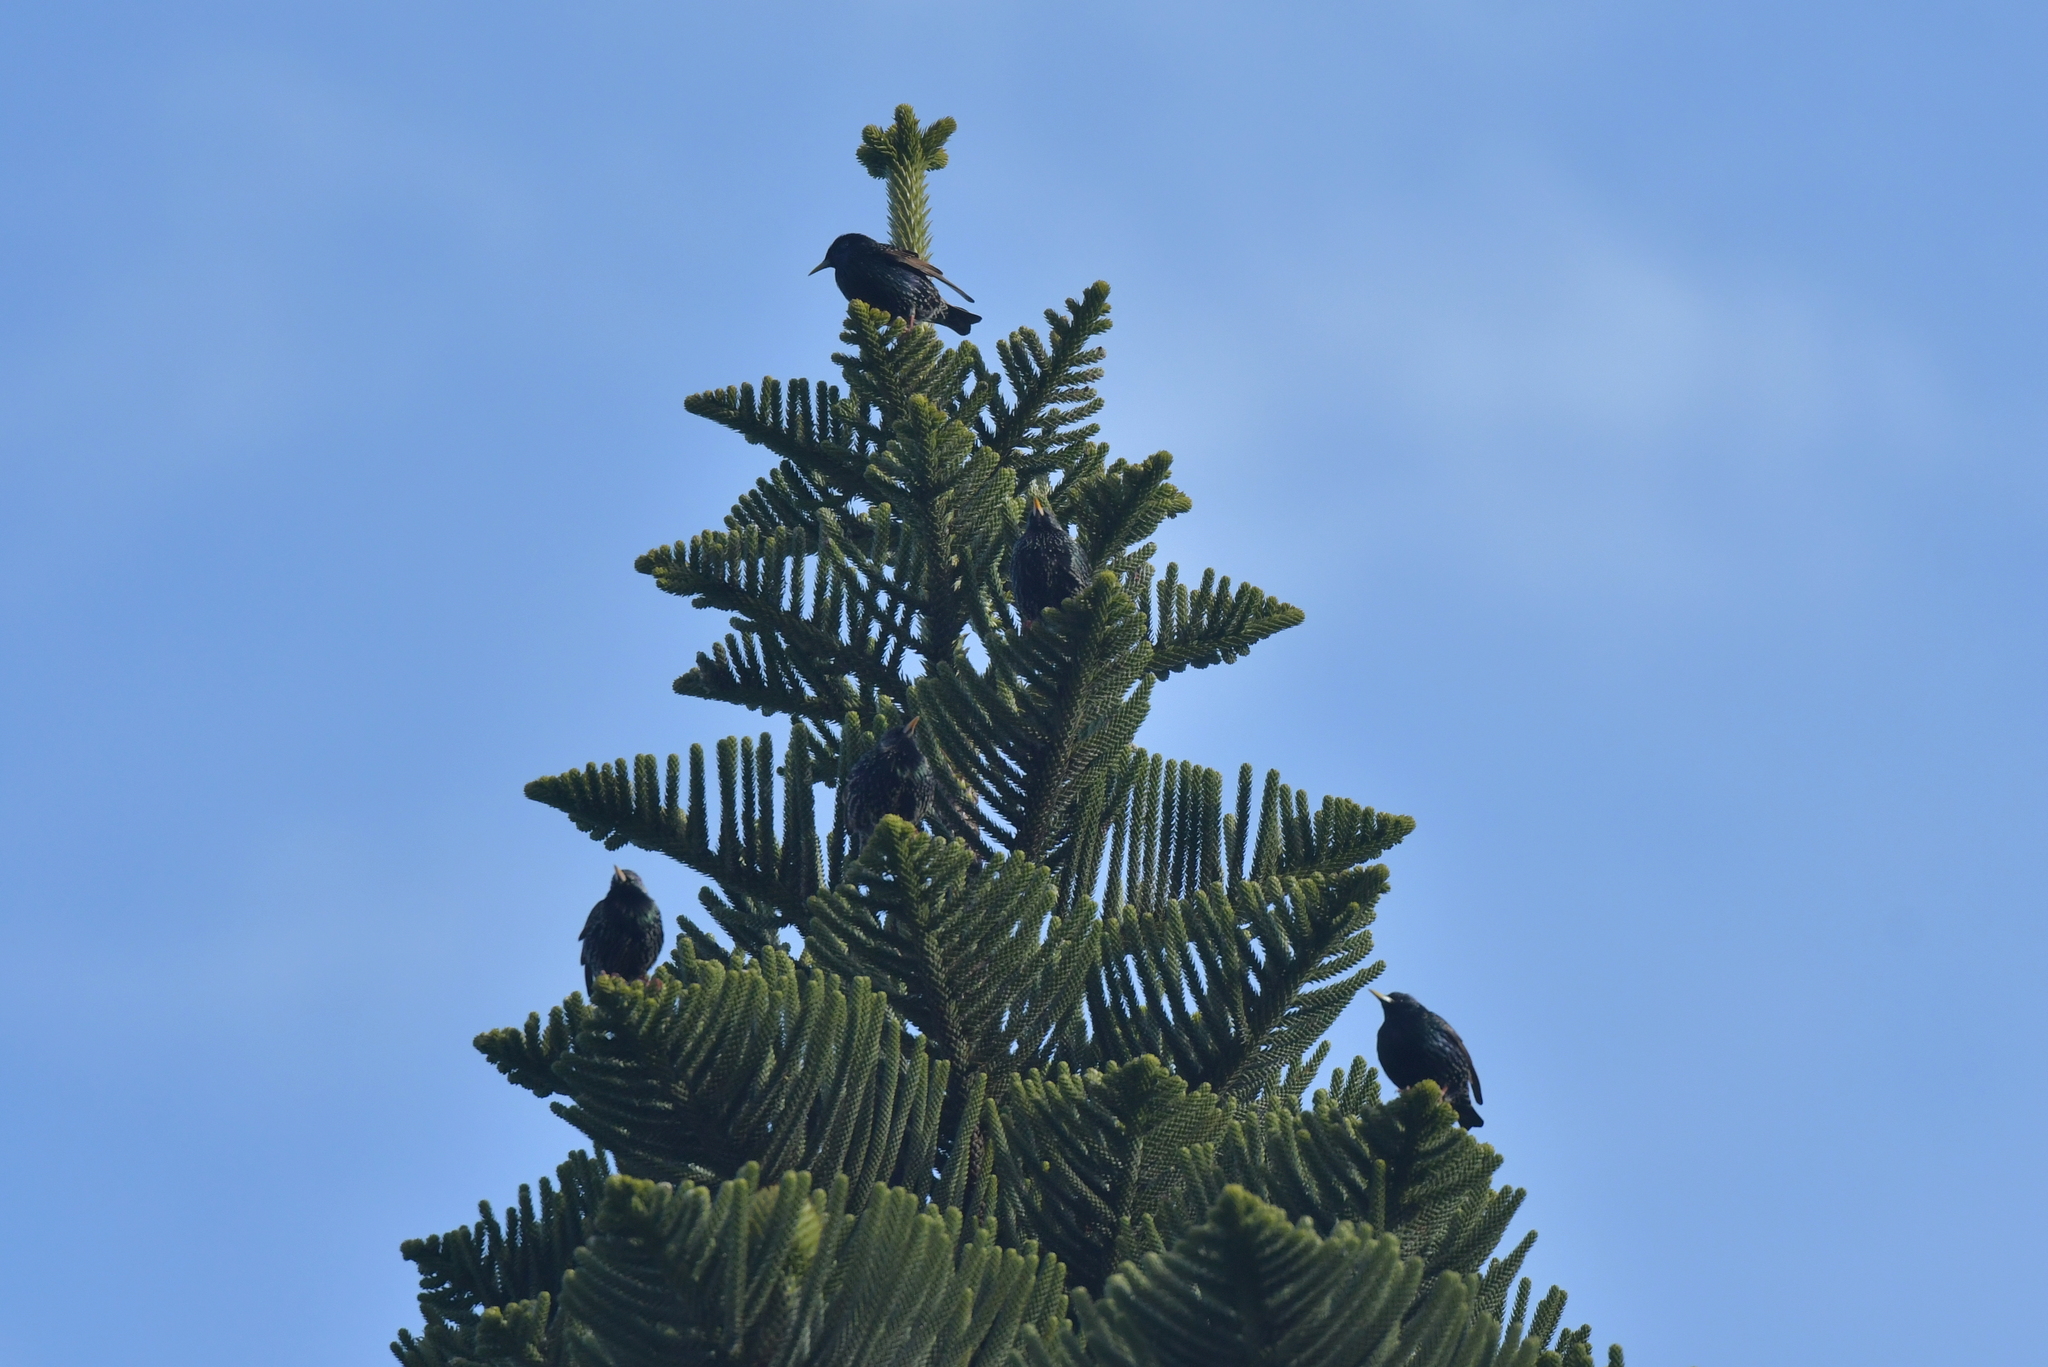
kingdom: Animalia
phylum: Chordata
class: Aves
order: Passeriformes
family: Sturnidae
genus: Sturnus
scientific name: Sturnus vulgaris
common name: Common starling
